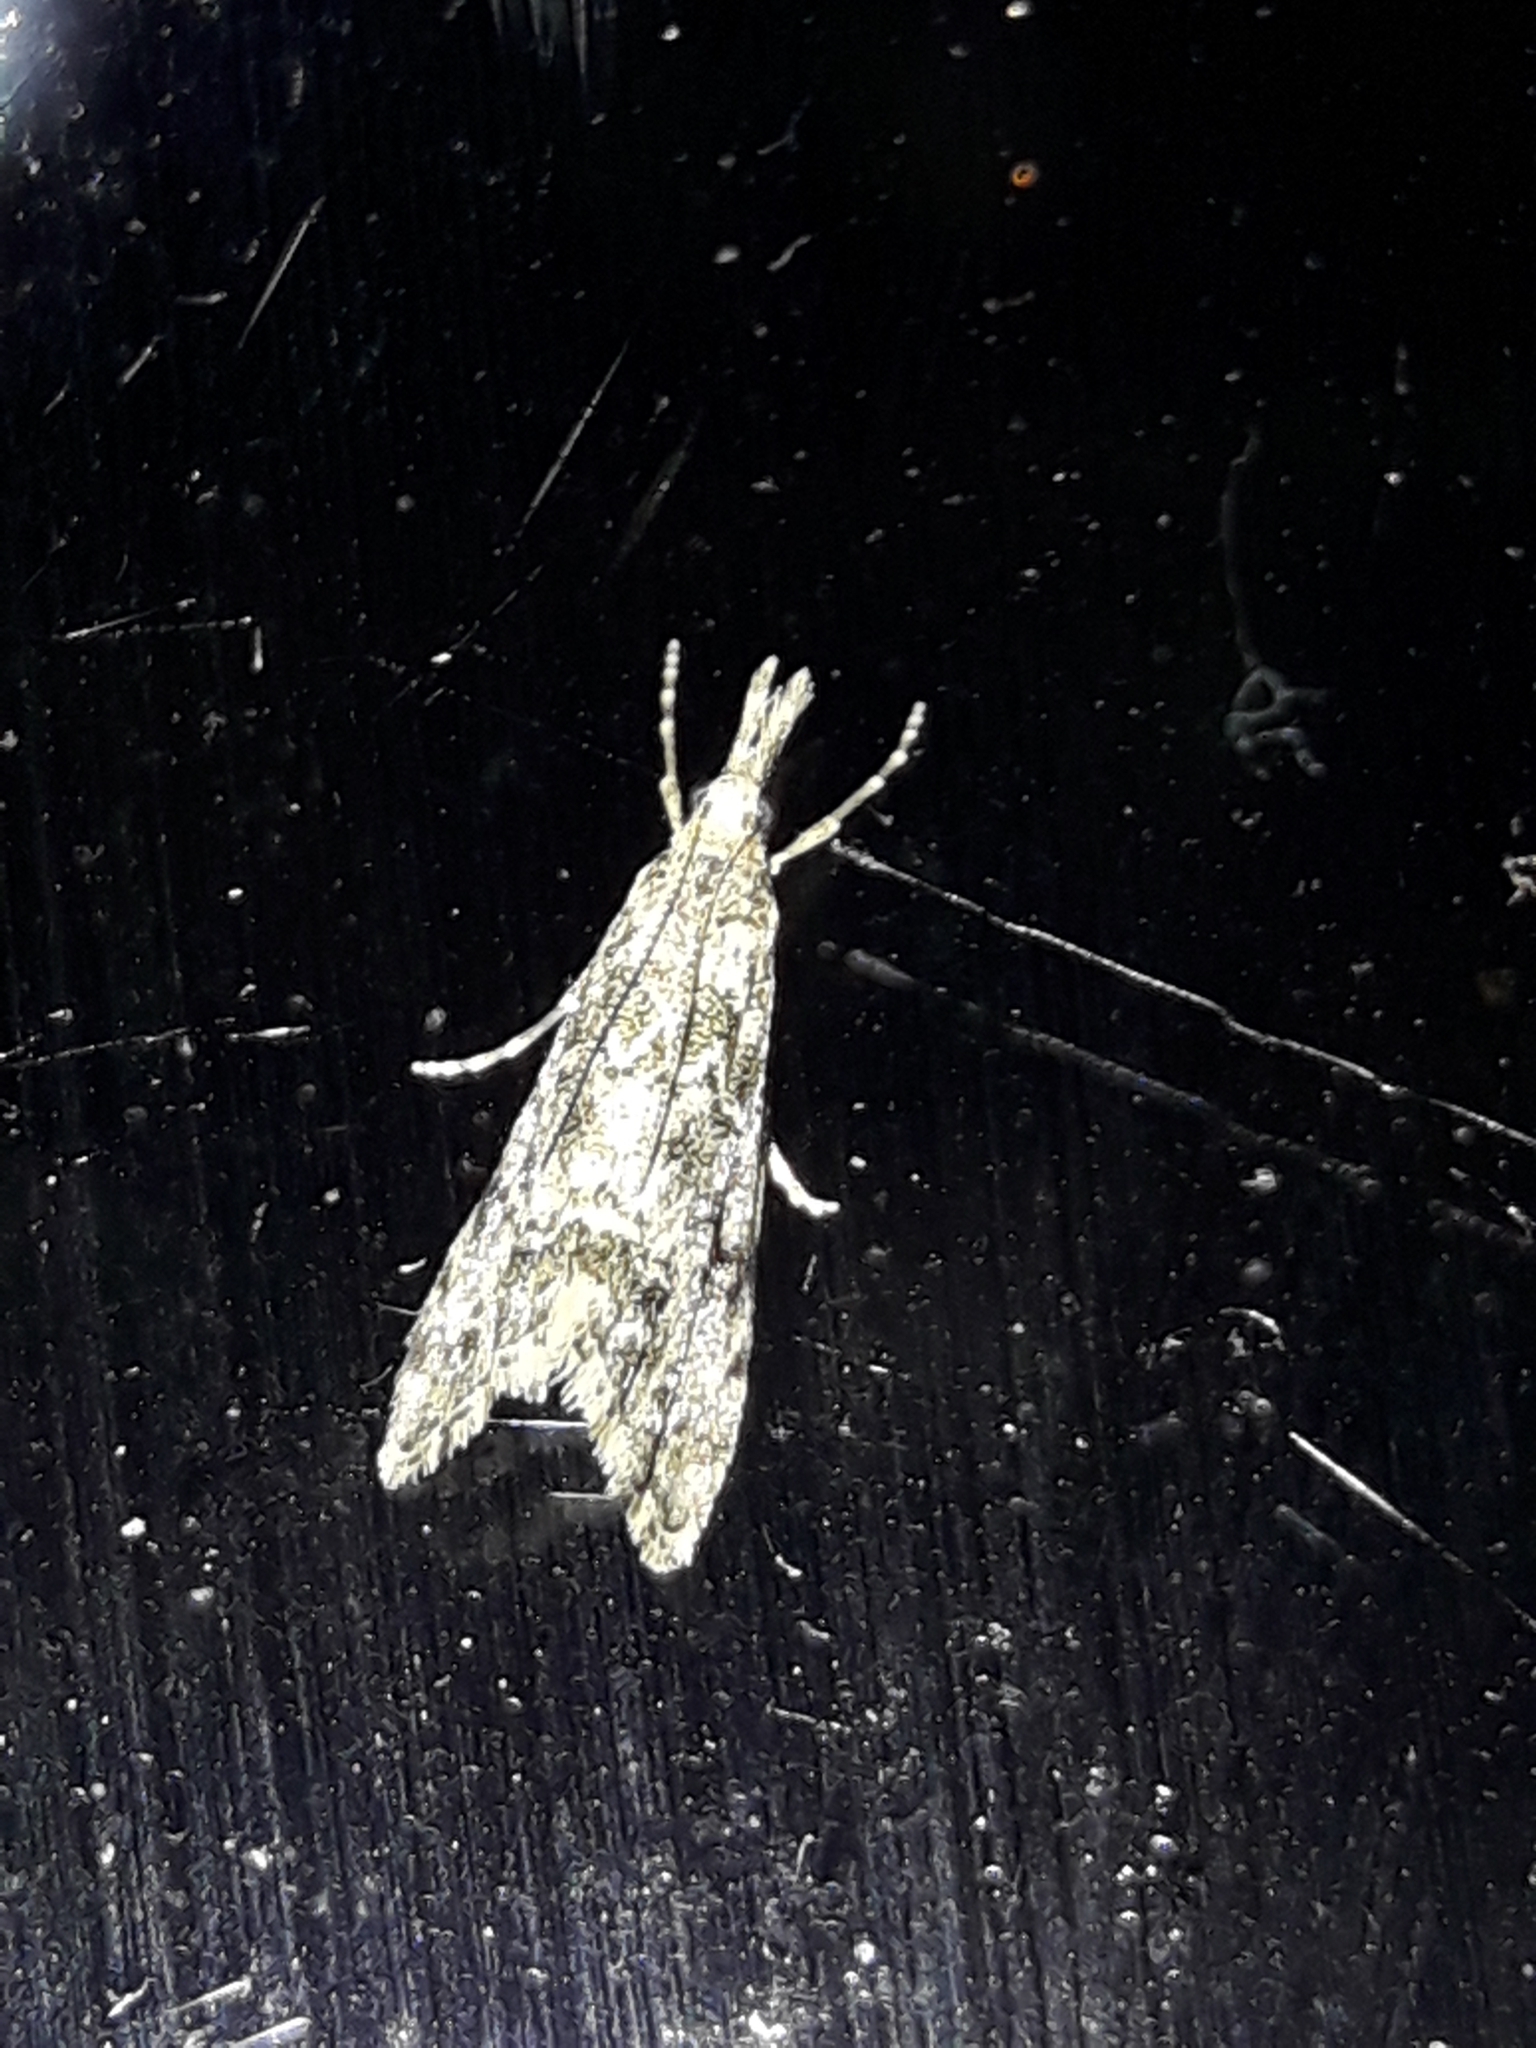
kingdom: Animalia
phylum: Arthropoda
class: Insecta
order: Lepidoptera
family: Crambidae
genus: Glaucocharis
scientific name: Glaucocharis elaina
